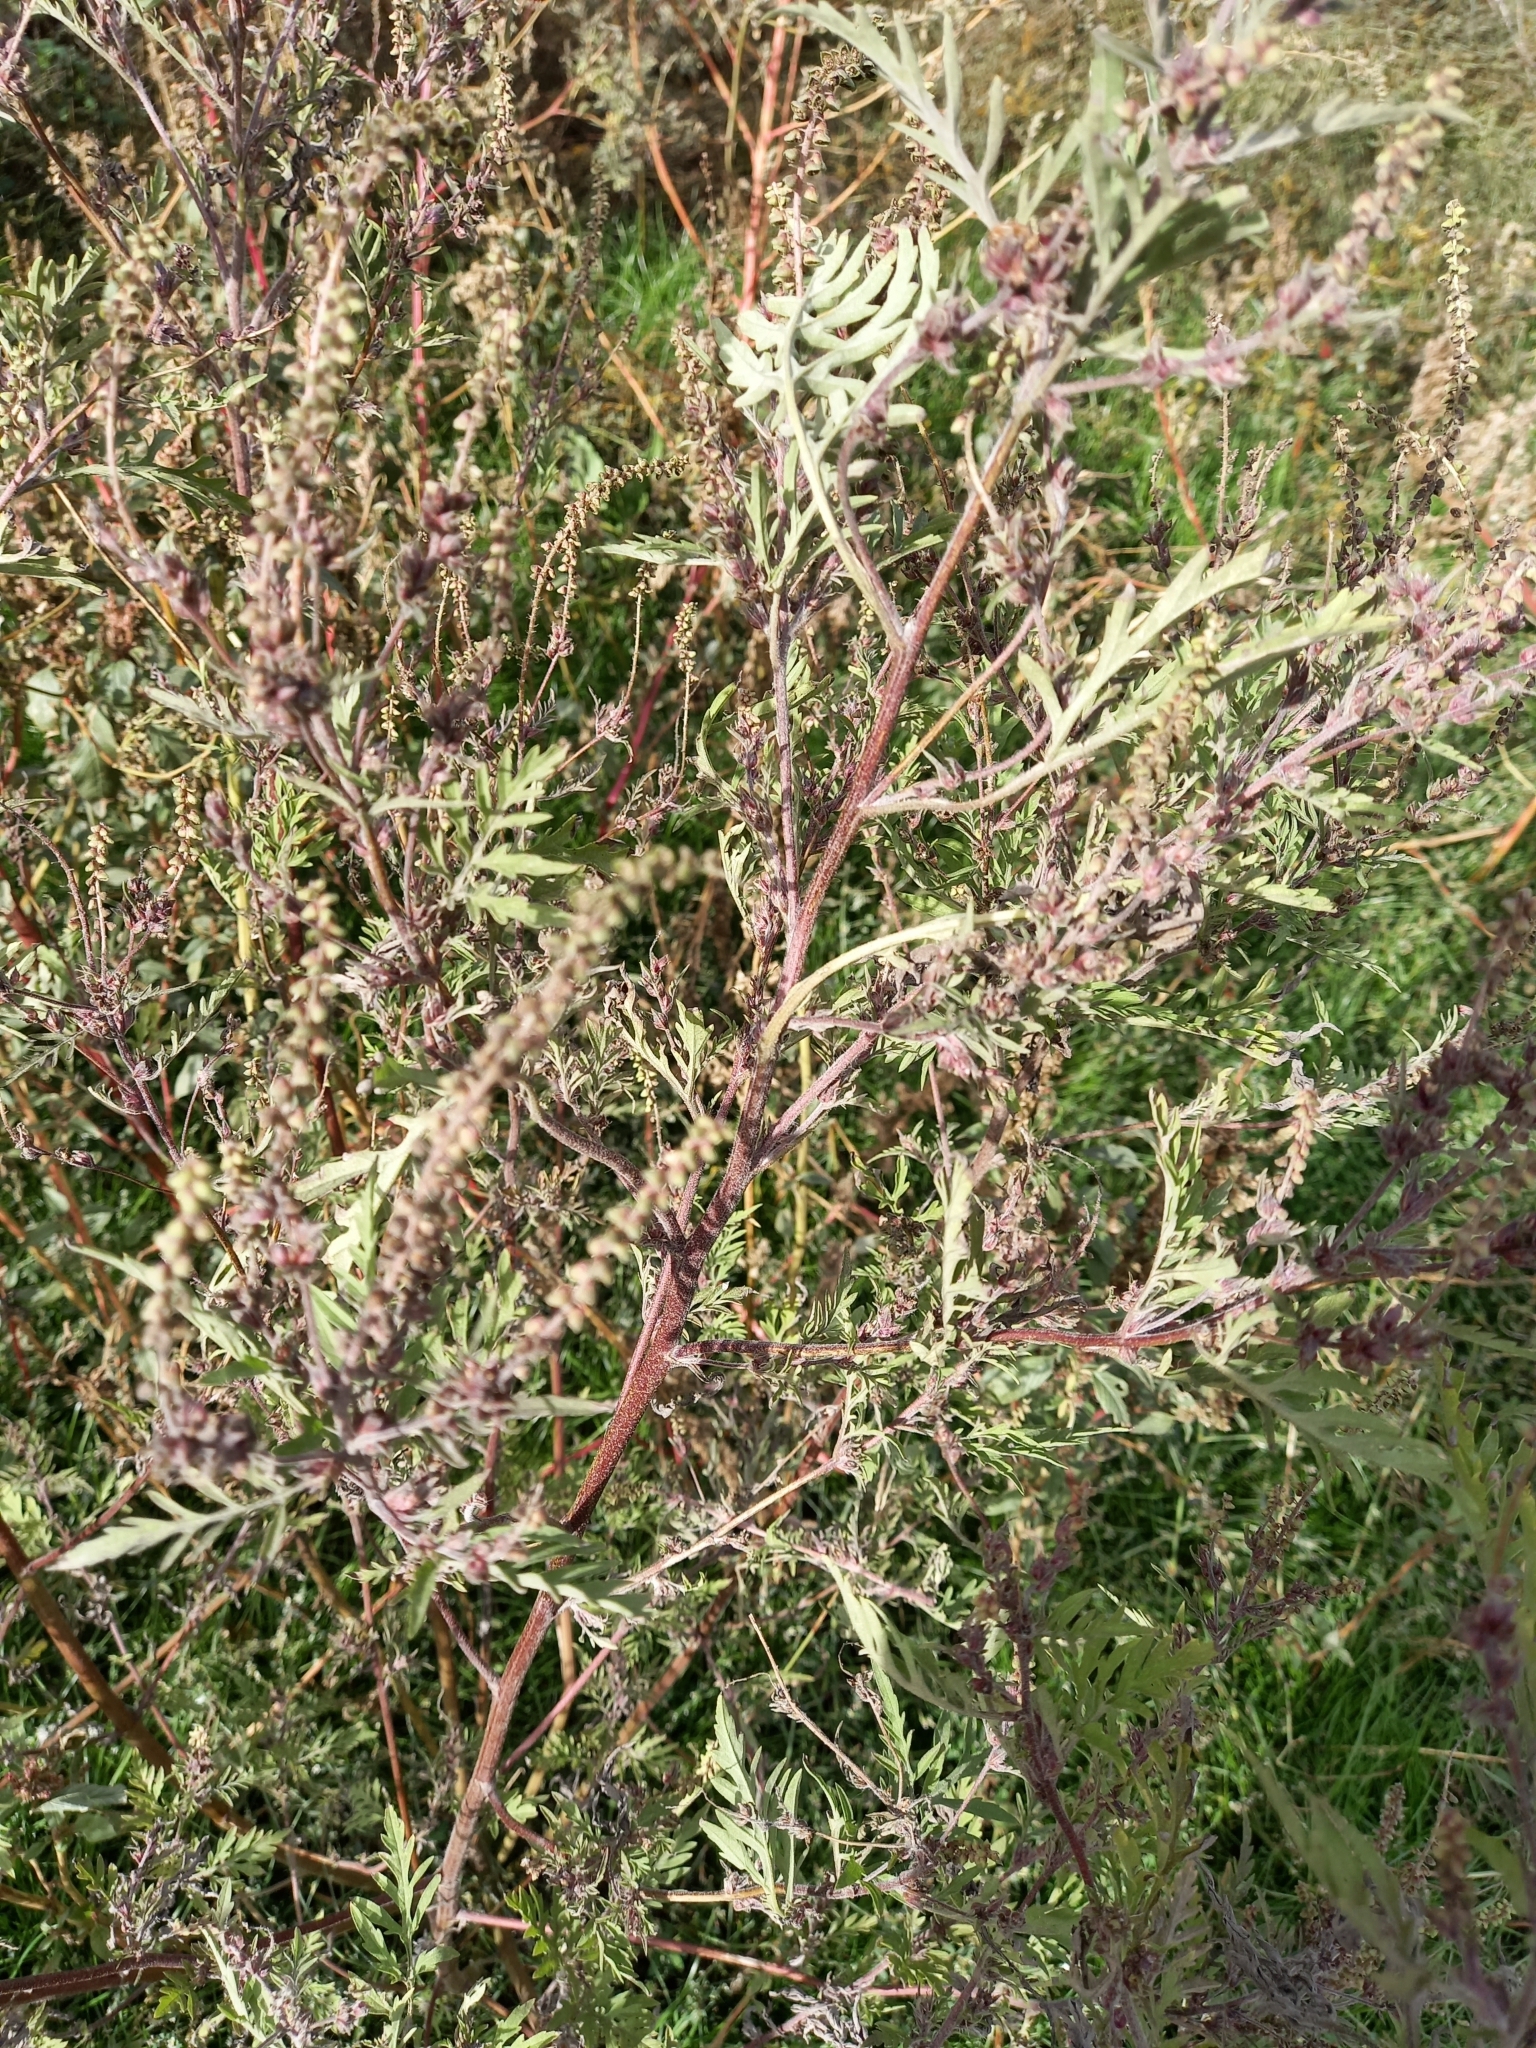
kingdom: Plantae
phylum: Tracheophyta
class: Magnoliopsida
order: Asterales
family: Asteraceae
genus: Ambrosia
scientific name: Ambrosia artemisiifolia
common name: Annual ragweed
